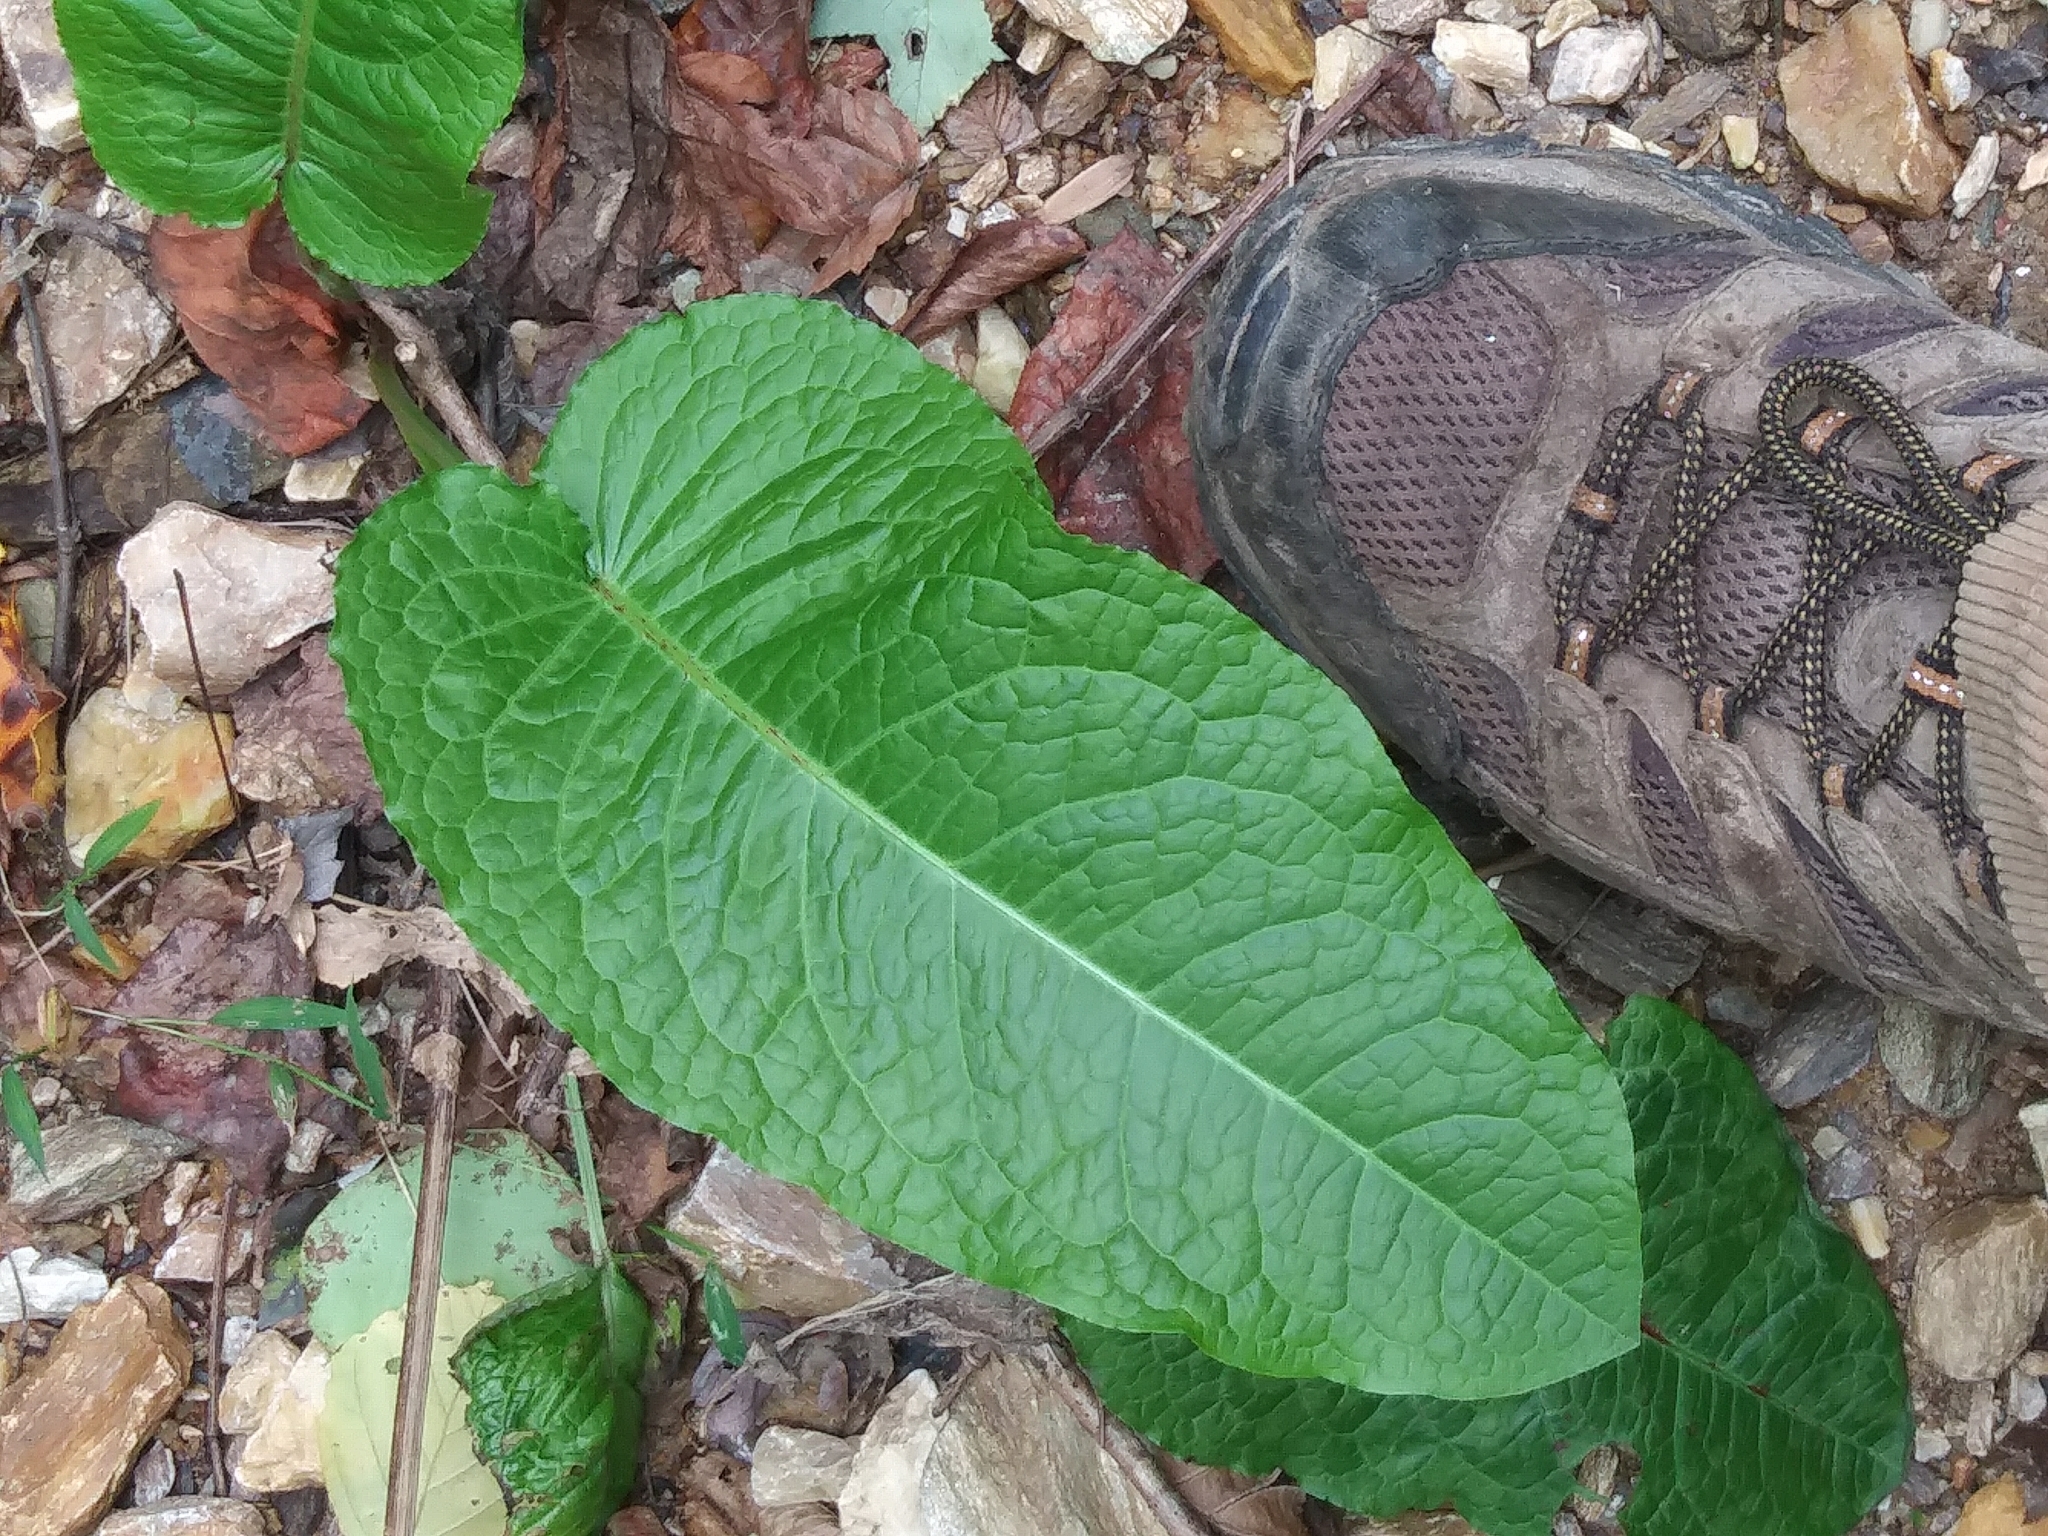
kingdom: Plantae
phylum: Tracheophyta
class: Magnoliopsida
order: Caryophyllales
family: Polygonaceae
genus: Rumex
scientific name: Rumex obtusifolius
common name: Bitter dock
